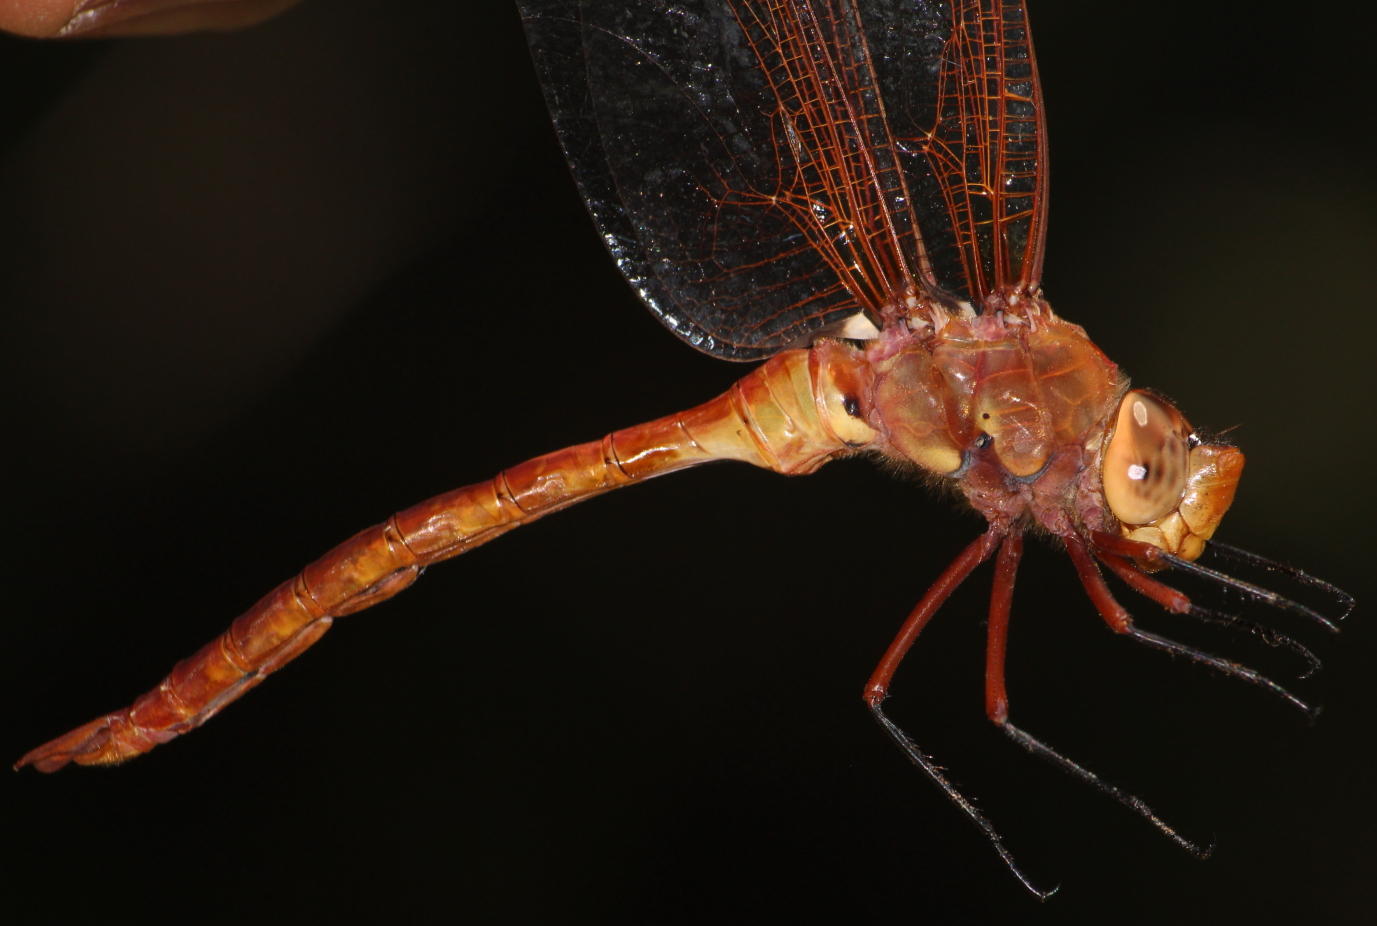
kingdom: Animalia
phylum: Arthropoda
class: Insecta
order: Odonata
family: Aeshnidae
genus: Anax
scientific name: Anax speratus
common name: Orange emperor
